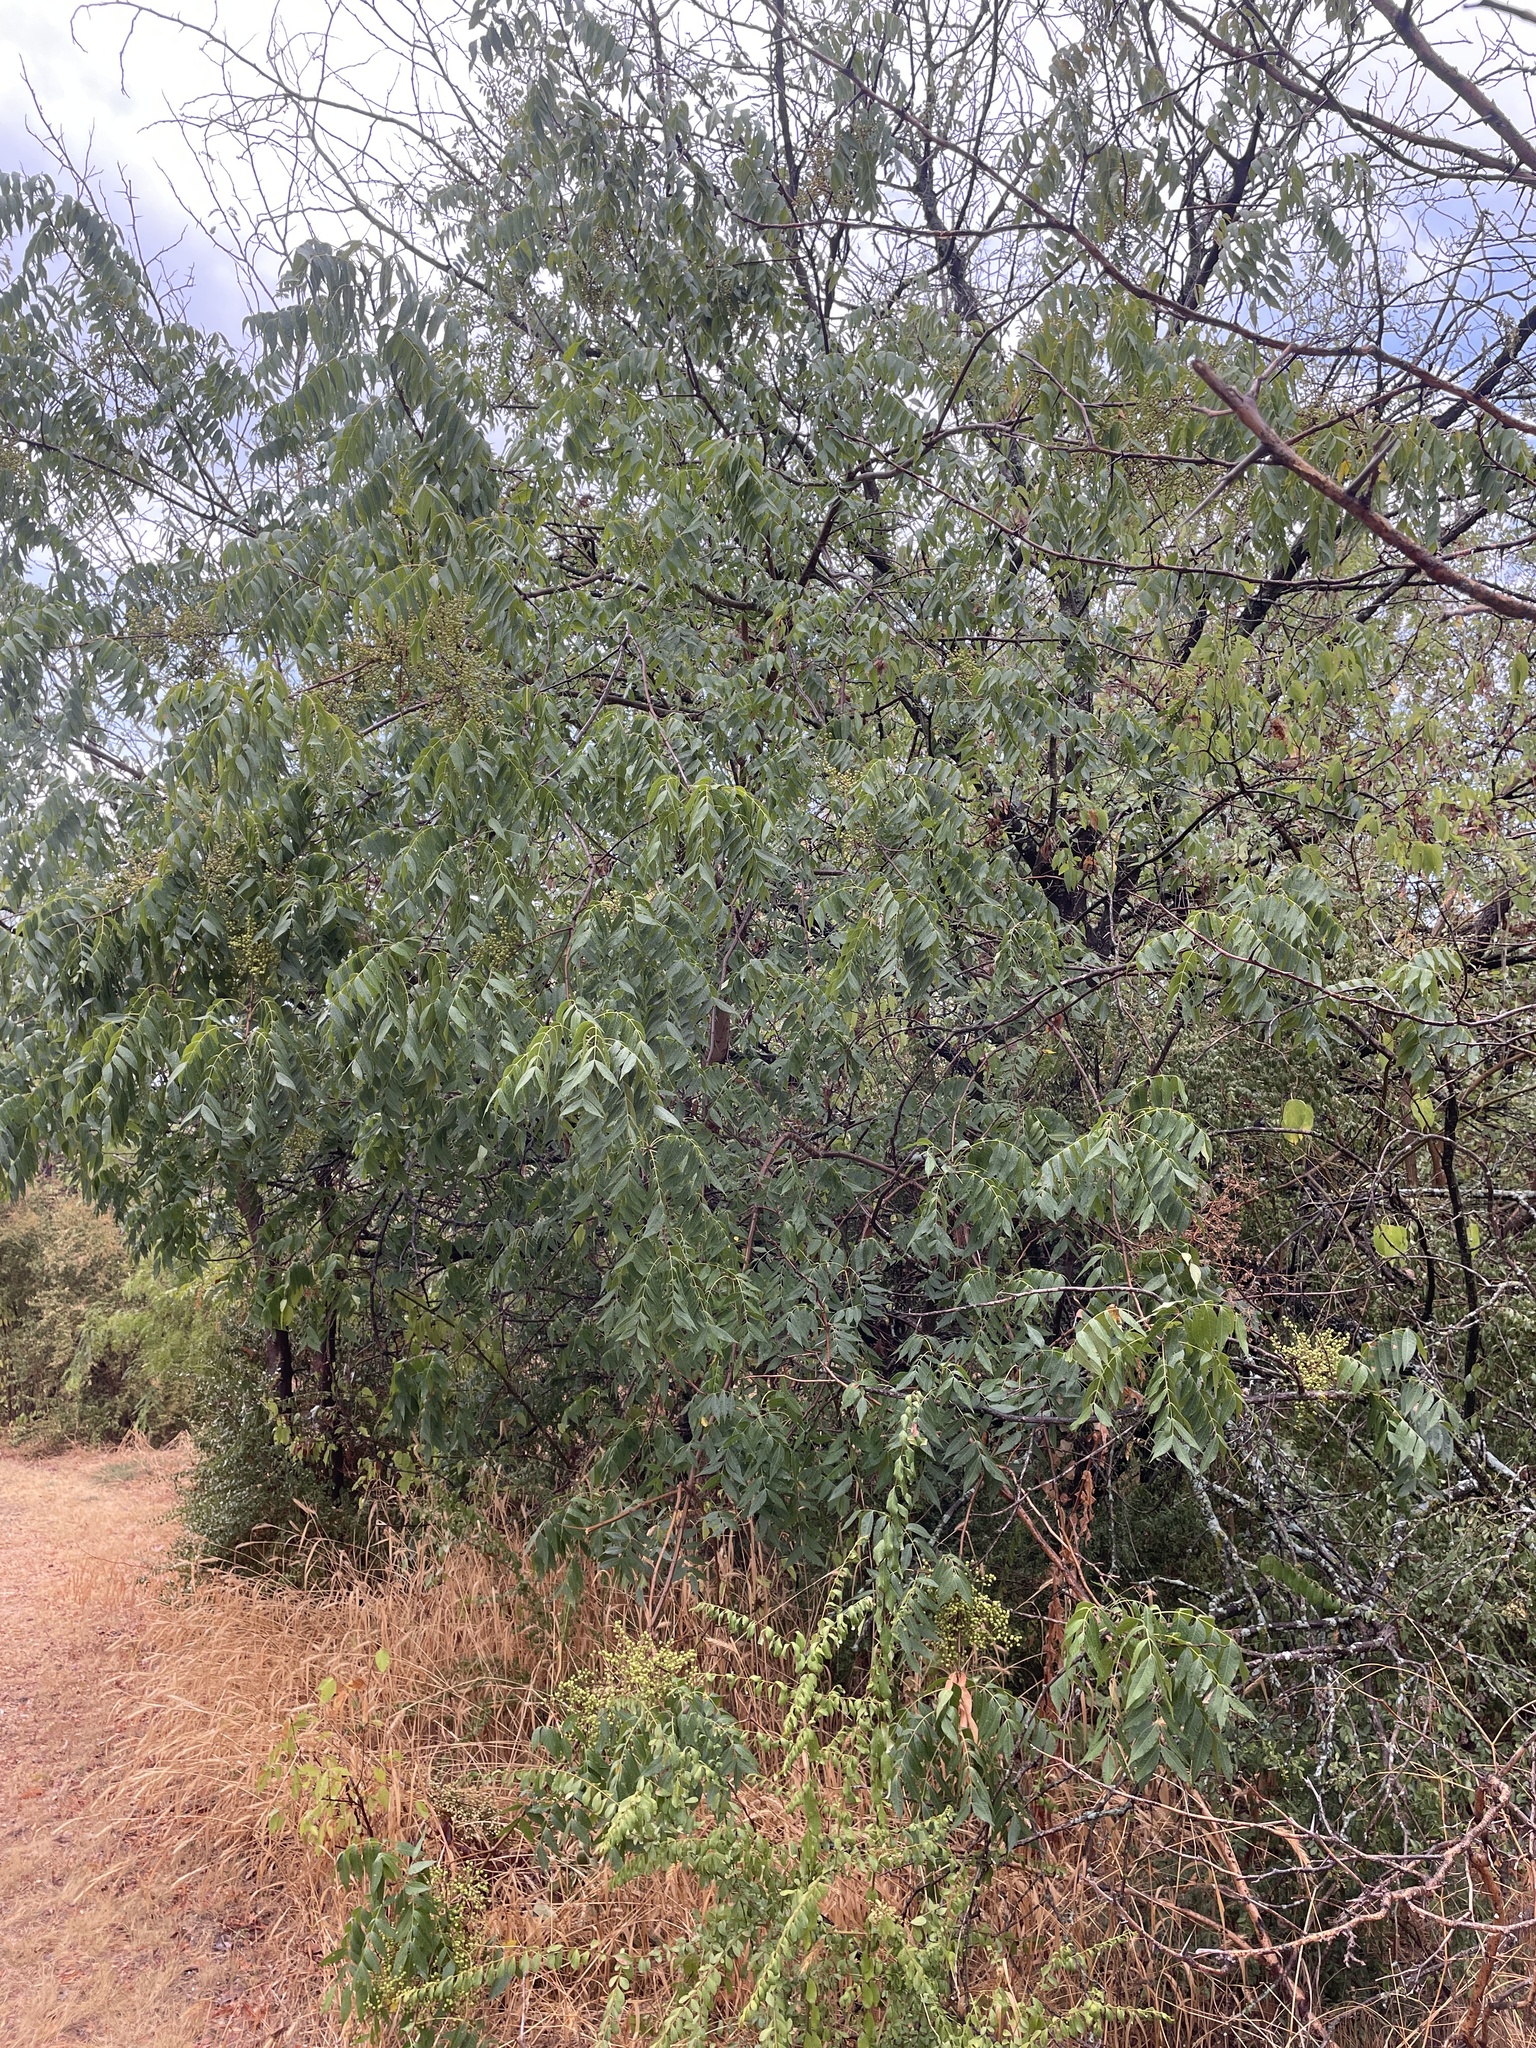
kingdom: Plantae
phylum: Tracheophyta
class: Magnoliopsida
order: Sapindales
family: Anacardiaceae
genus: Pistacia
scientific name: Pistacia chinensis
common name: Chinese pistache
